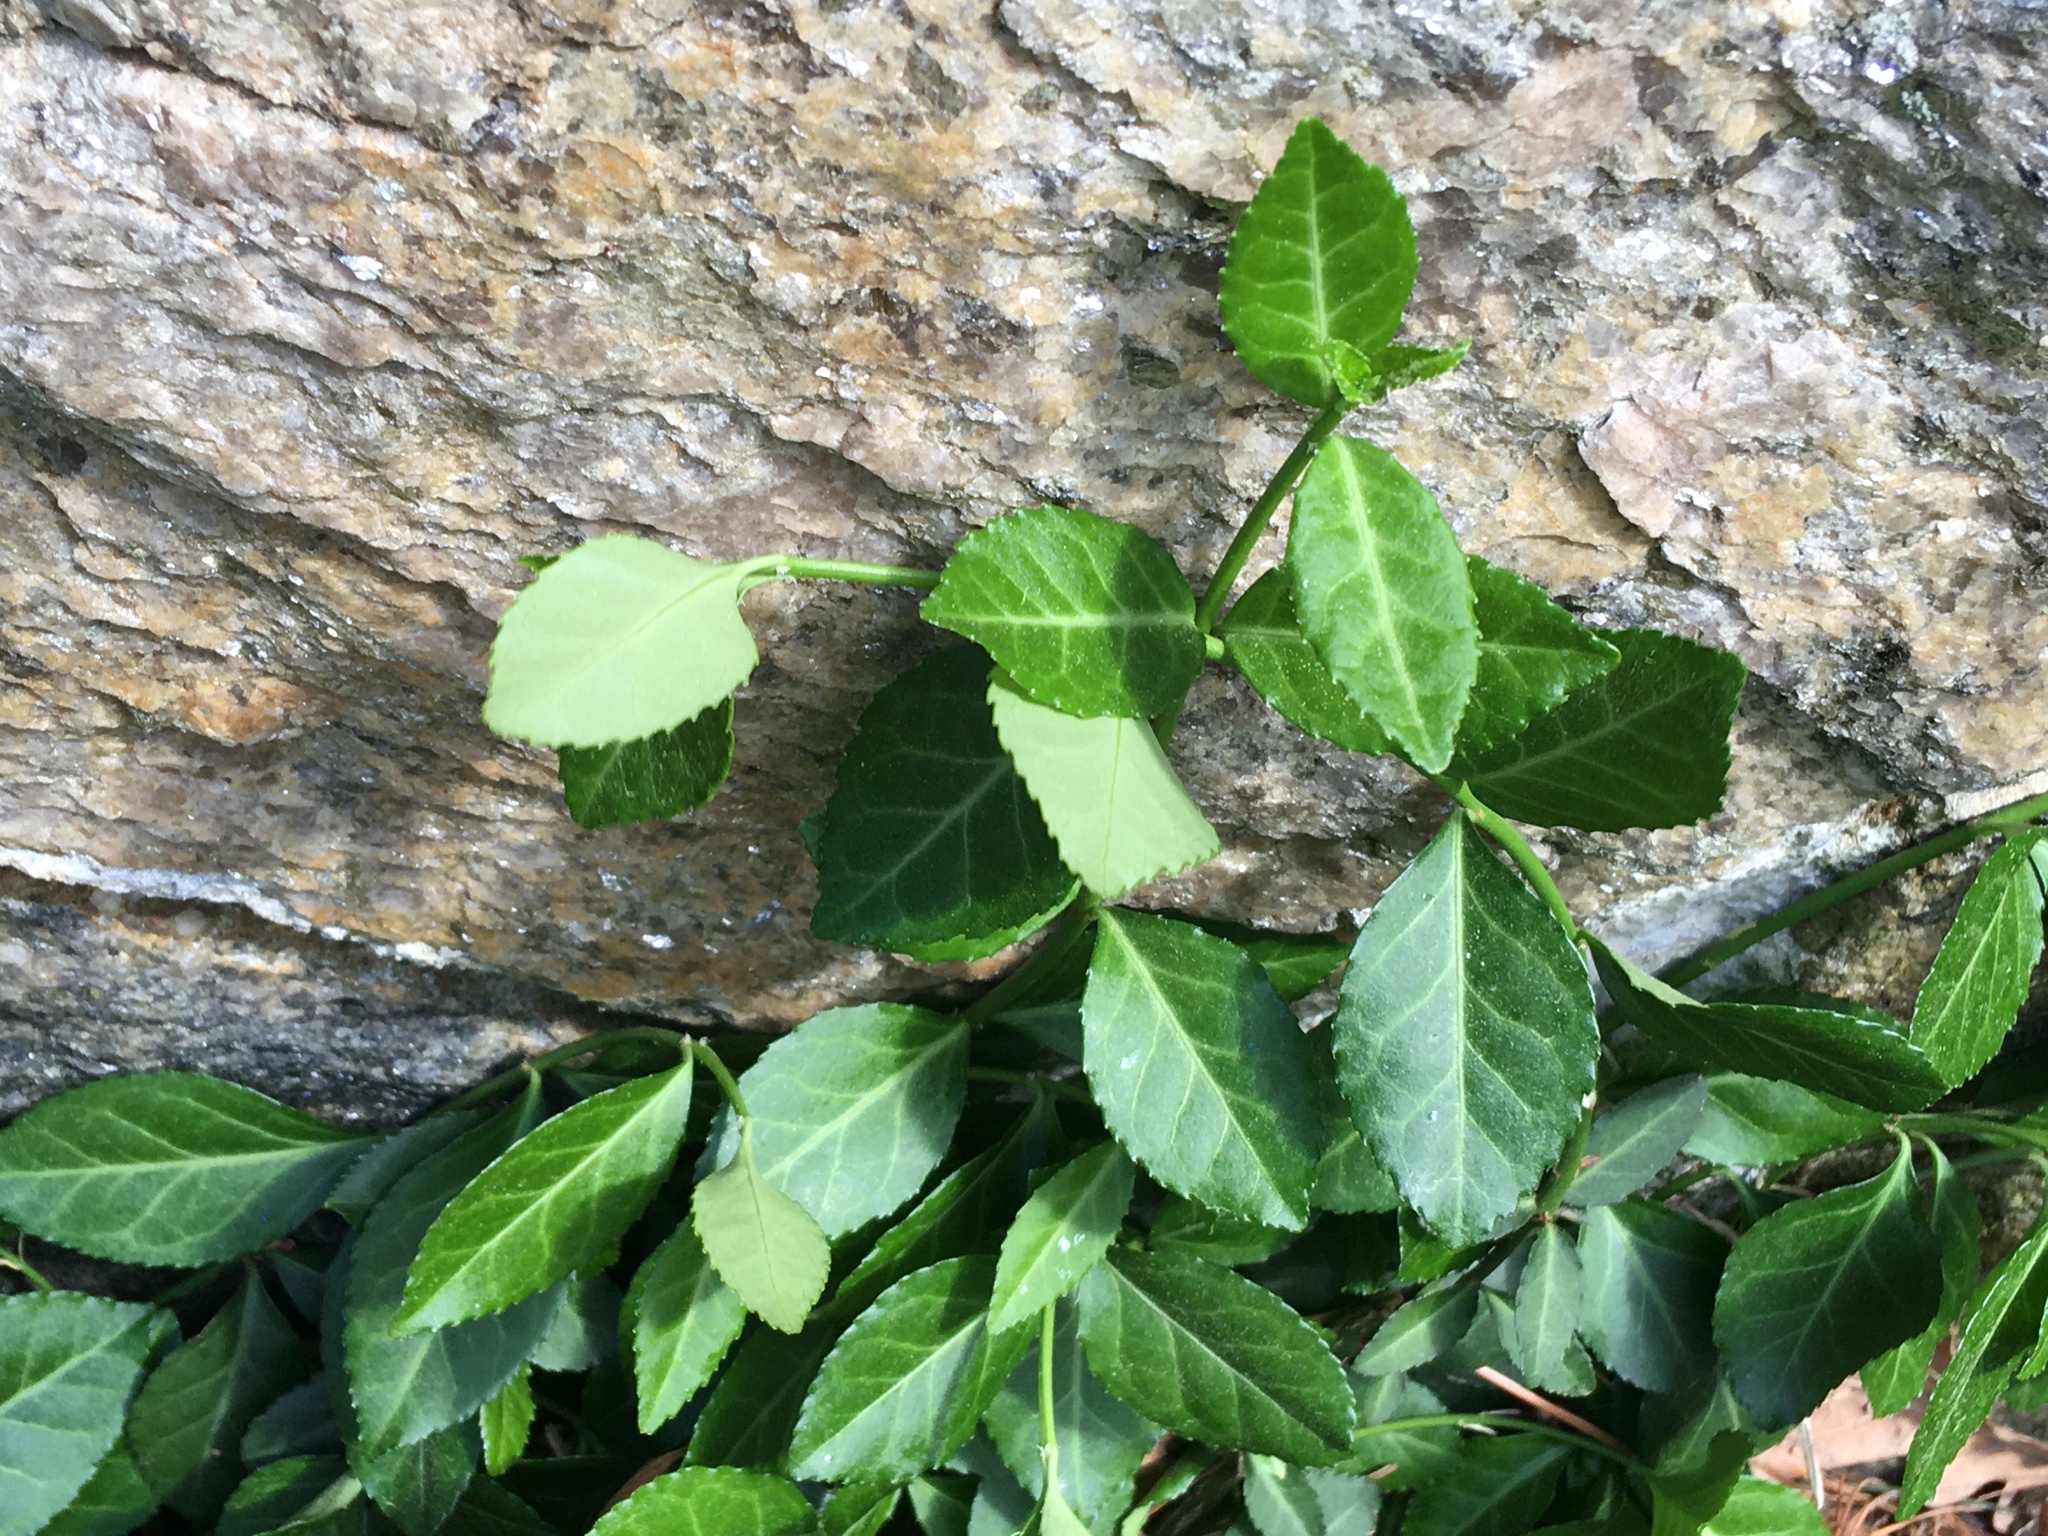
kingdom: Plantae
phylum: Tracheophyta
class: Magnoliopsida
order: Celastrales
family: Celastraceae
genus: Euonymus
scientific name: Euonymus fortunei
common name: Climbing euonymus
